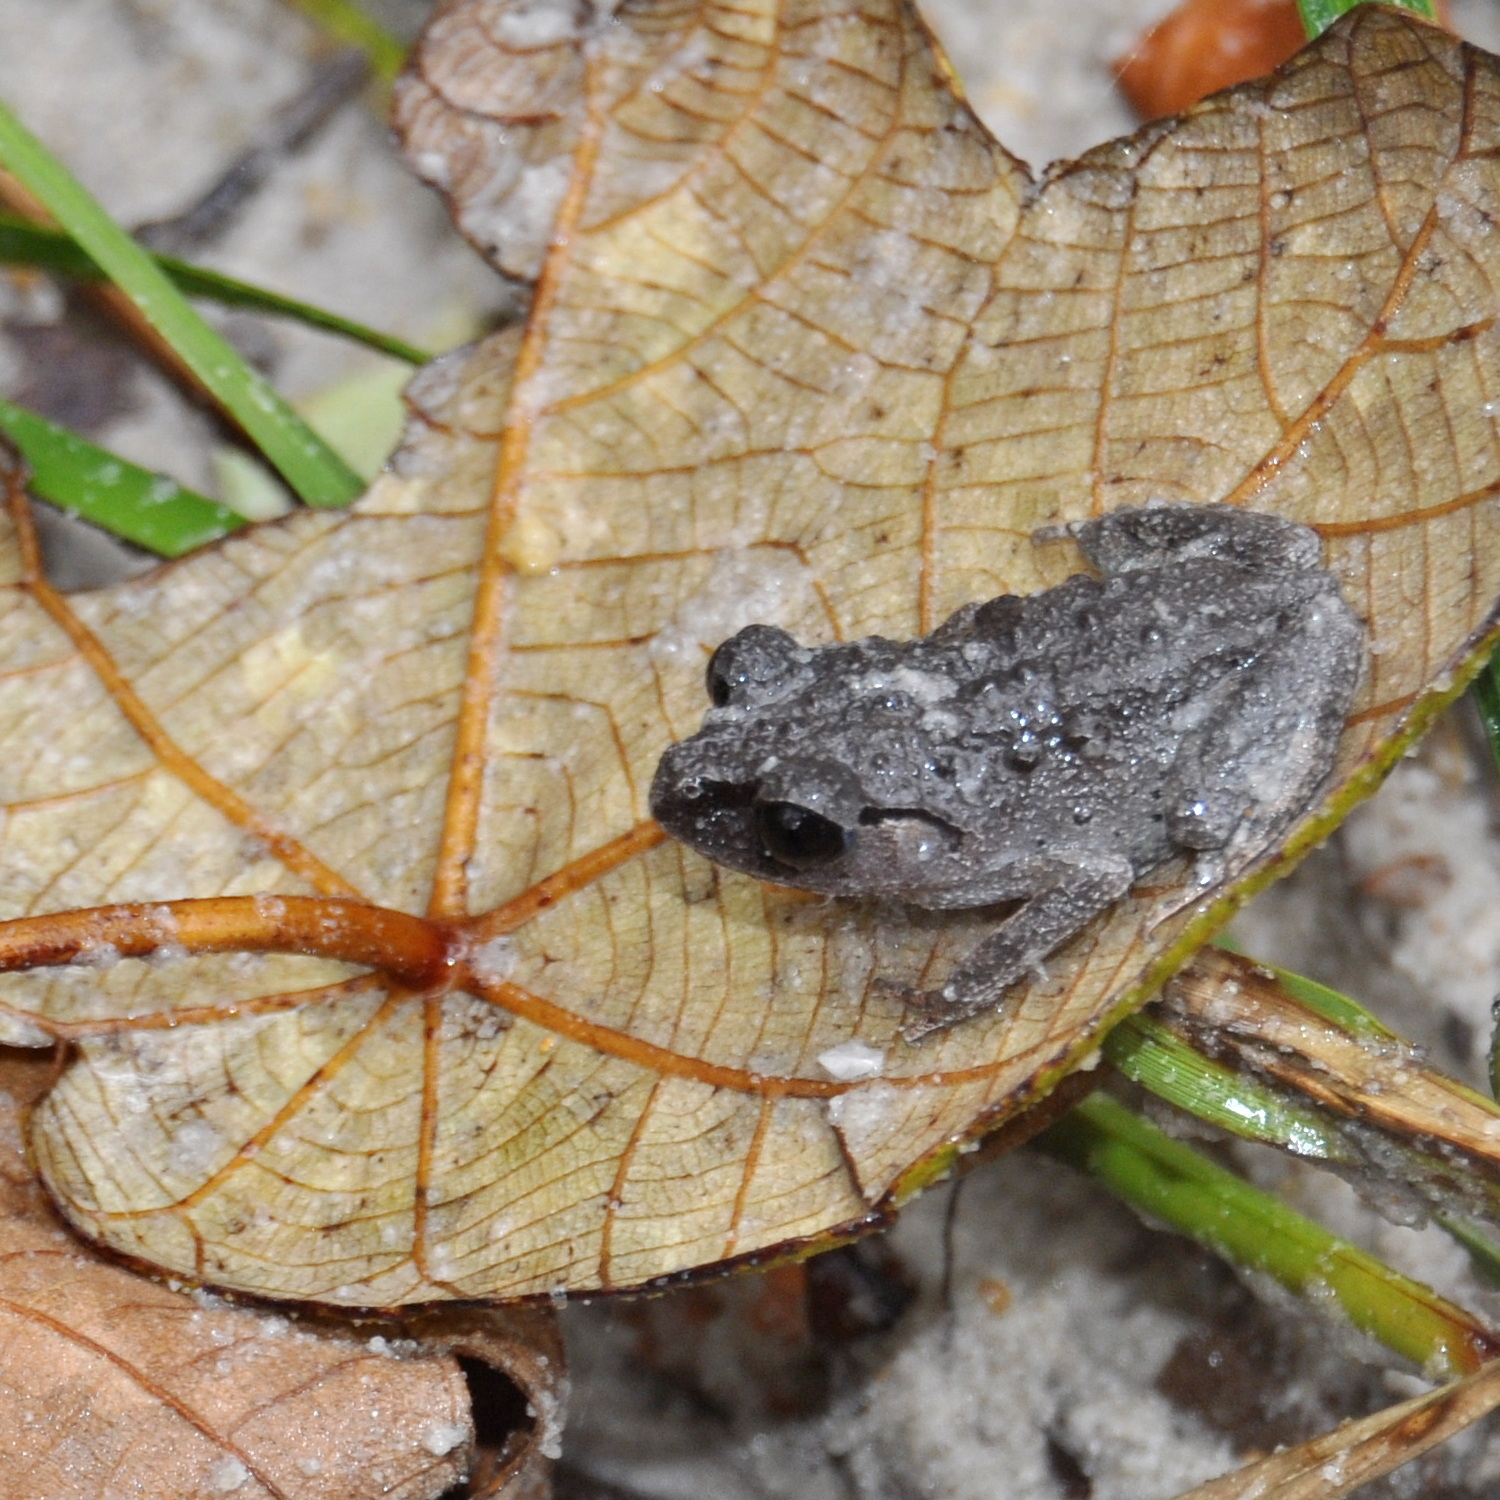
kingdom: Animalia
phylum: Chordata
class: Amphibia
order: Anura
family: Megophryidae
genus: Leptobrachium
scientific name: Leptobrachium hasseltii
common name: Hasselt's litter frog
